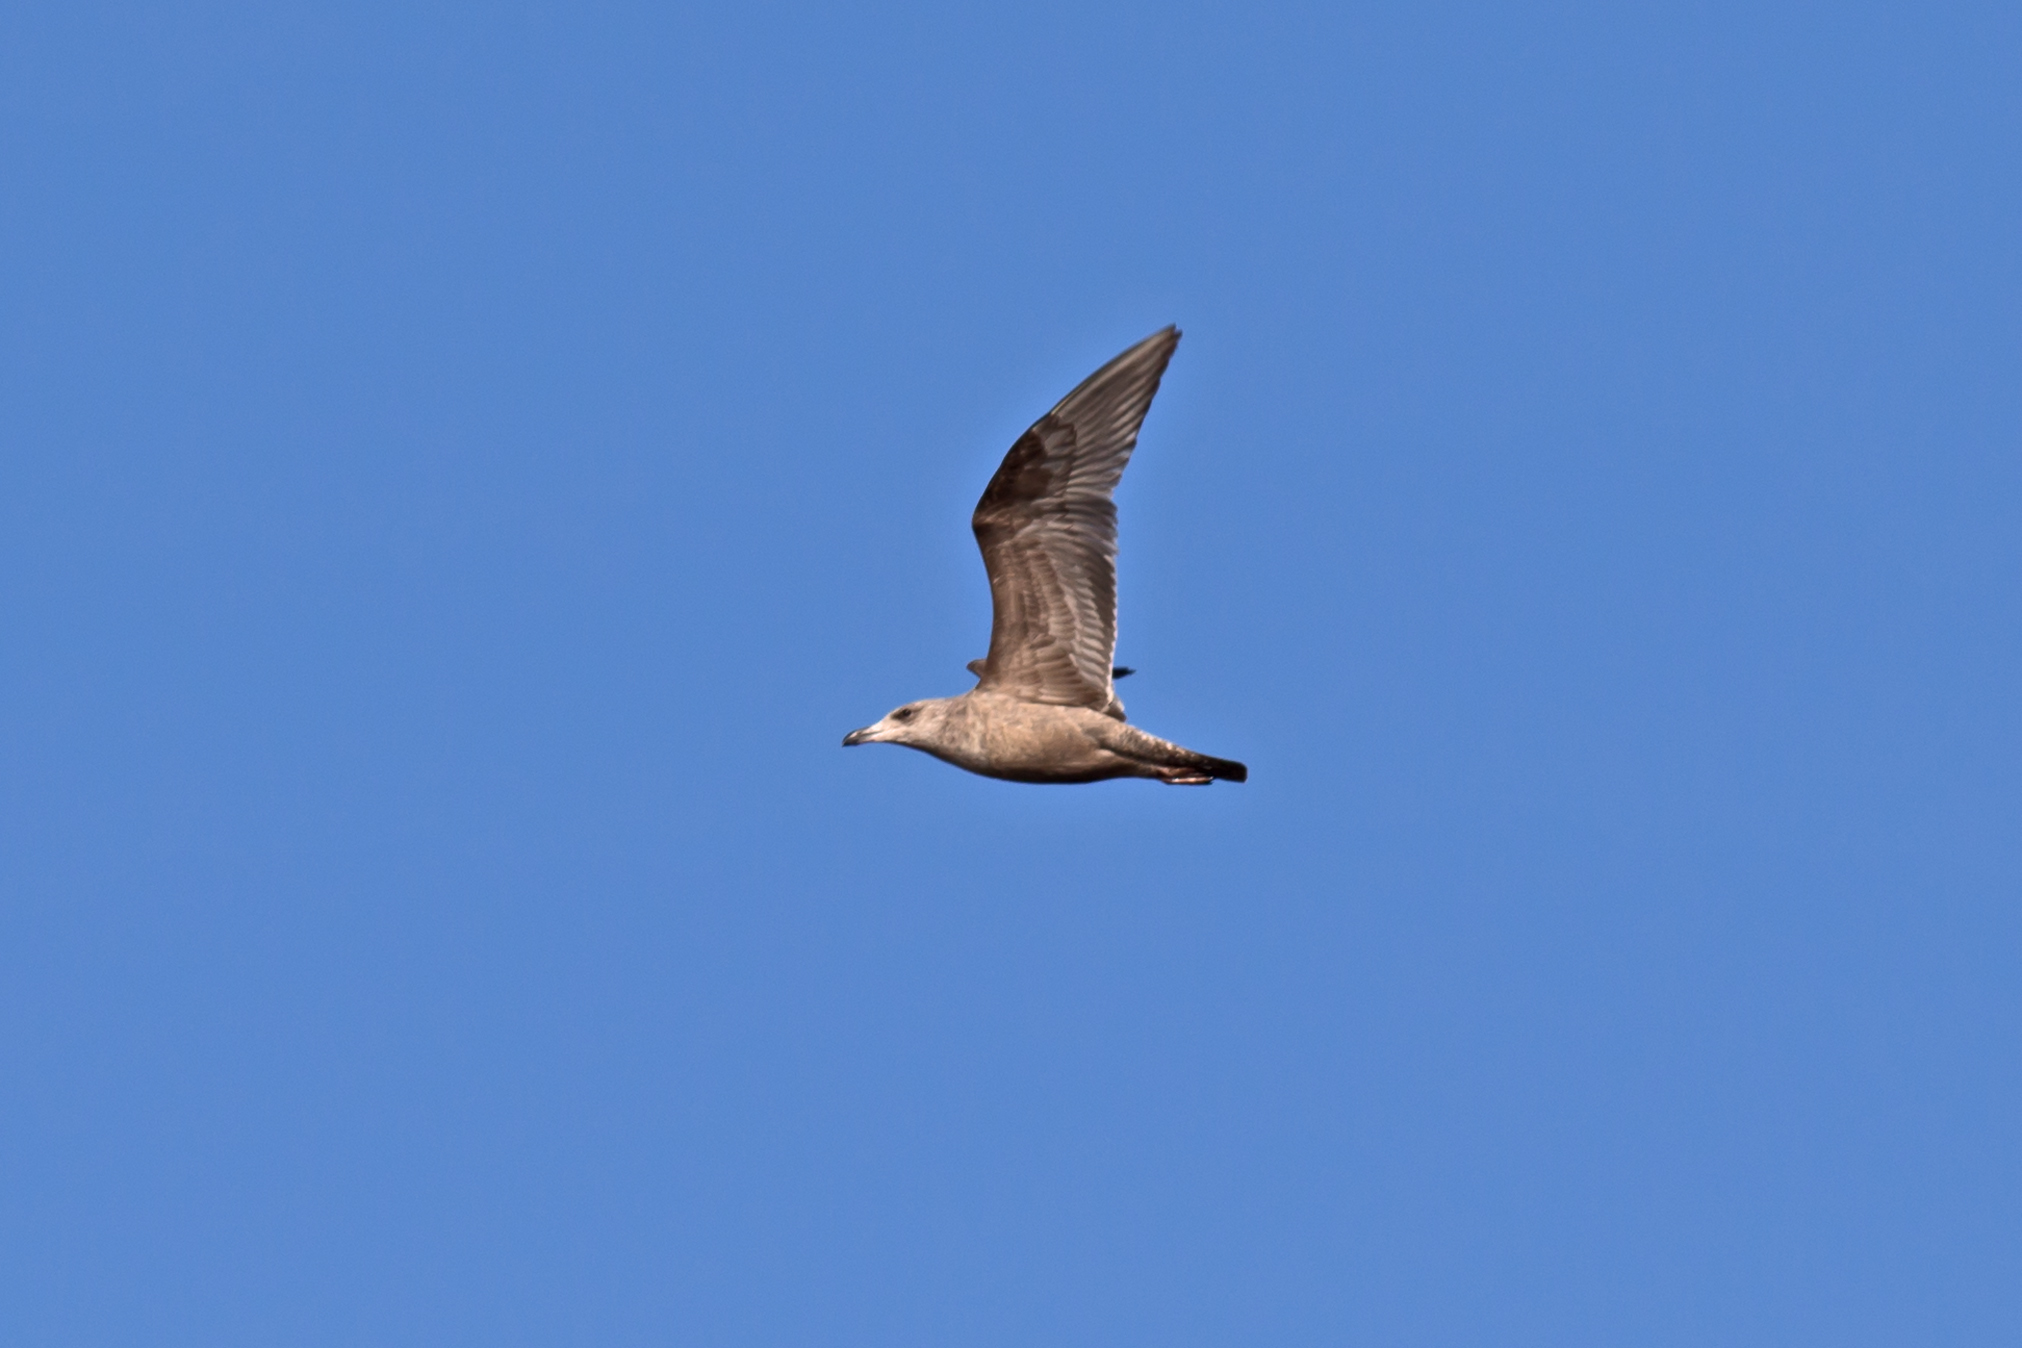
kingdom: Animalia
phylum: Chordata
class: Aves
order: Charadriiformes
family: Laridae
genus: Larus
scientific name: Larus argentatus
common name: Herring gull
